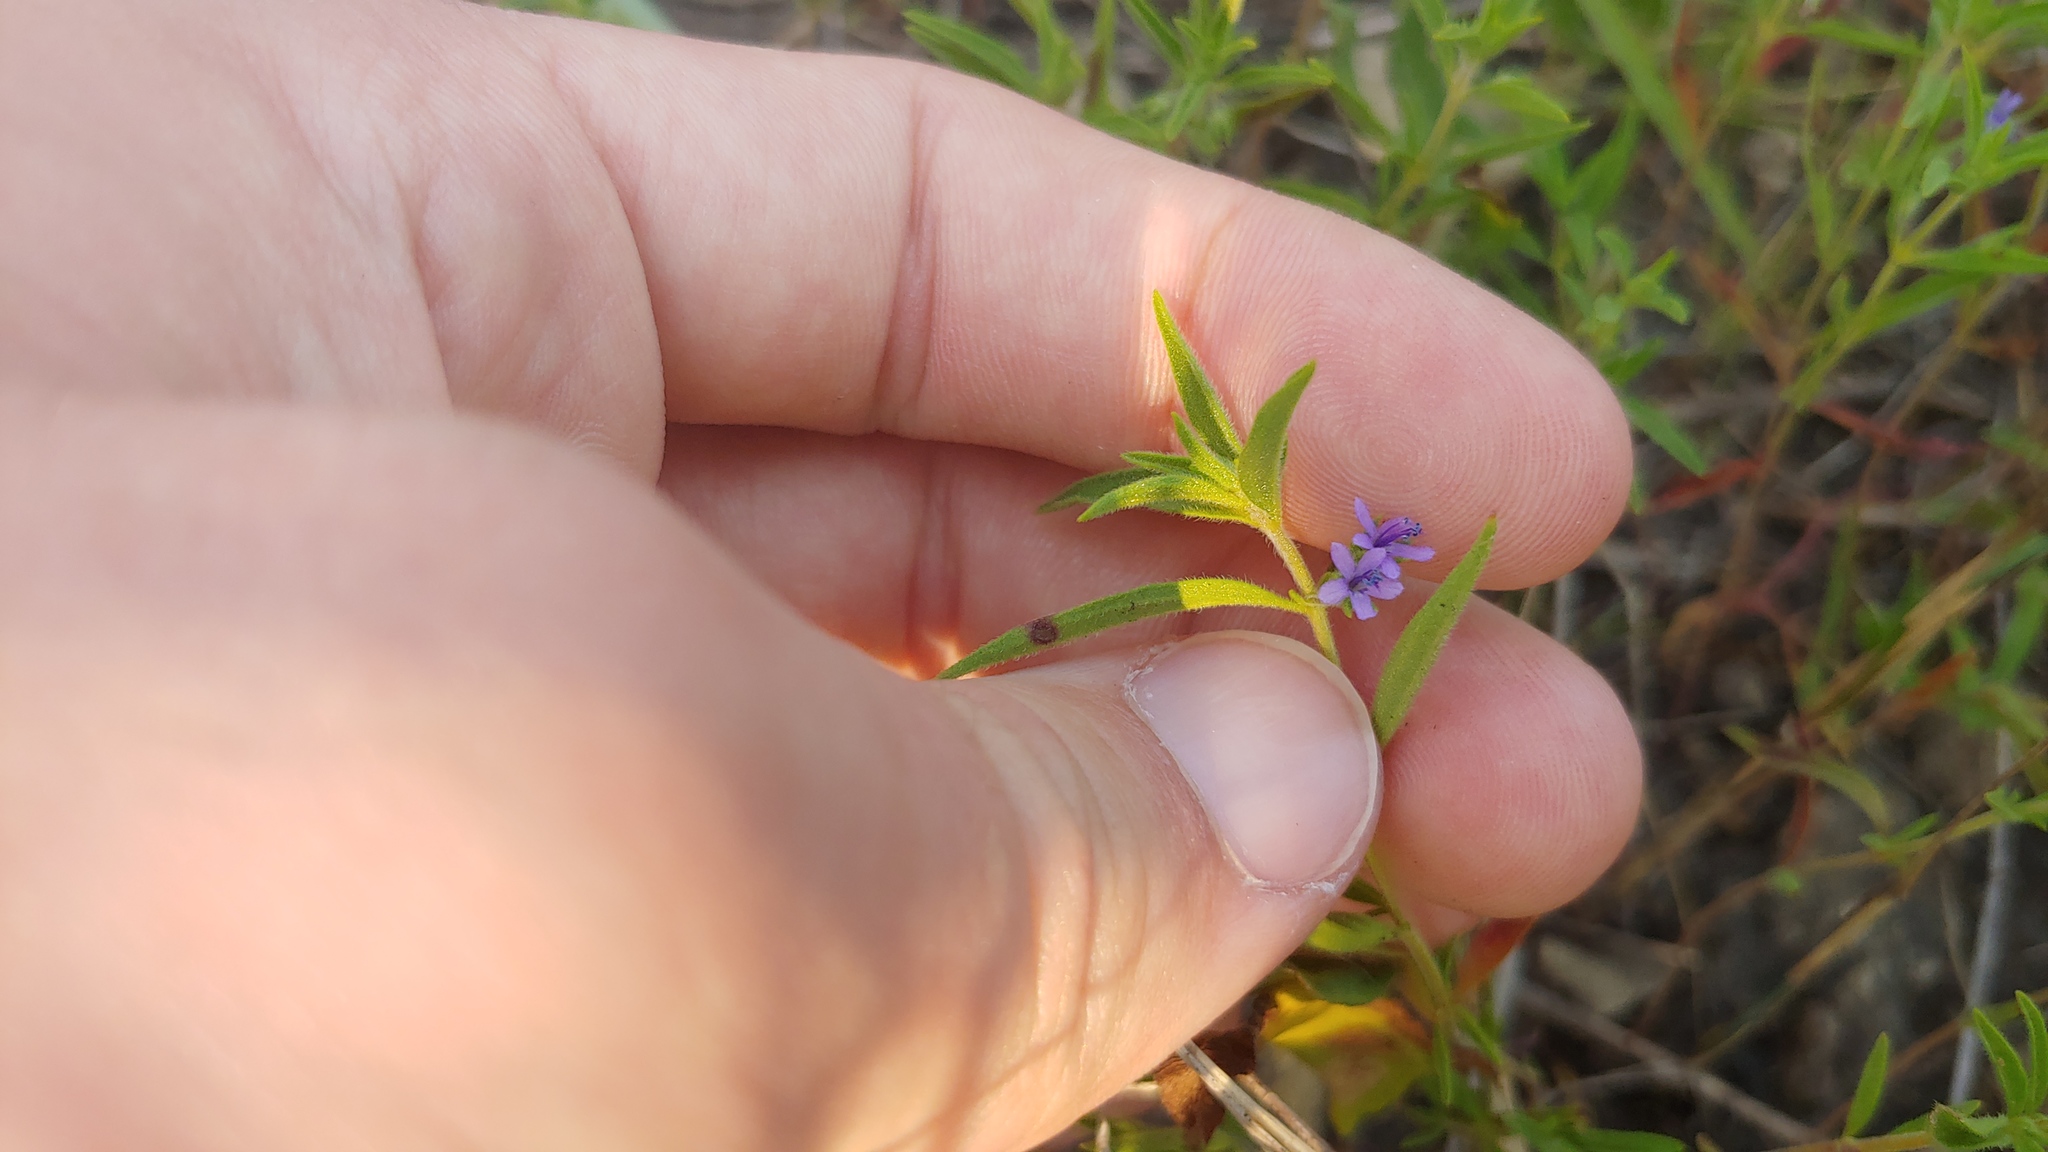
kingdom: Plantae
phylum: Tracheophyta
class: Magnoliopsida
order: Lamiales
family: Lamiaceae
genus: Trichostema
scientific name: Trichostema brachiatum
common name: False pennyroyal
